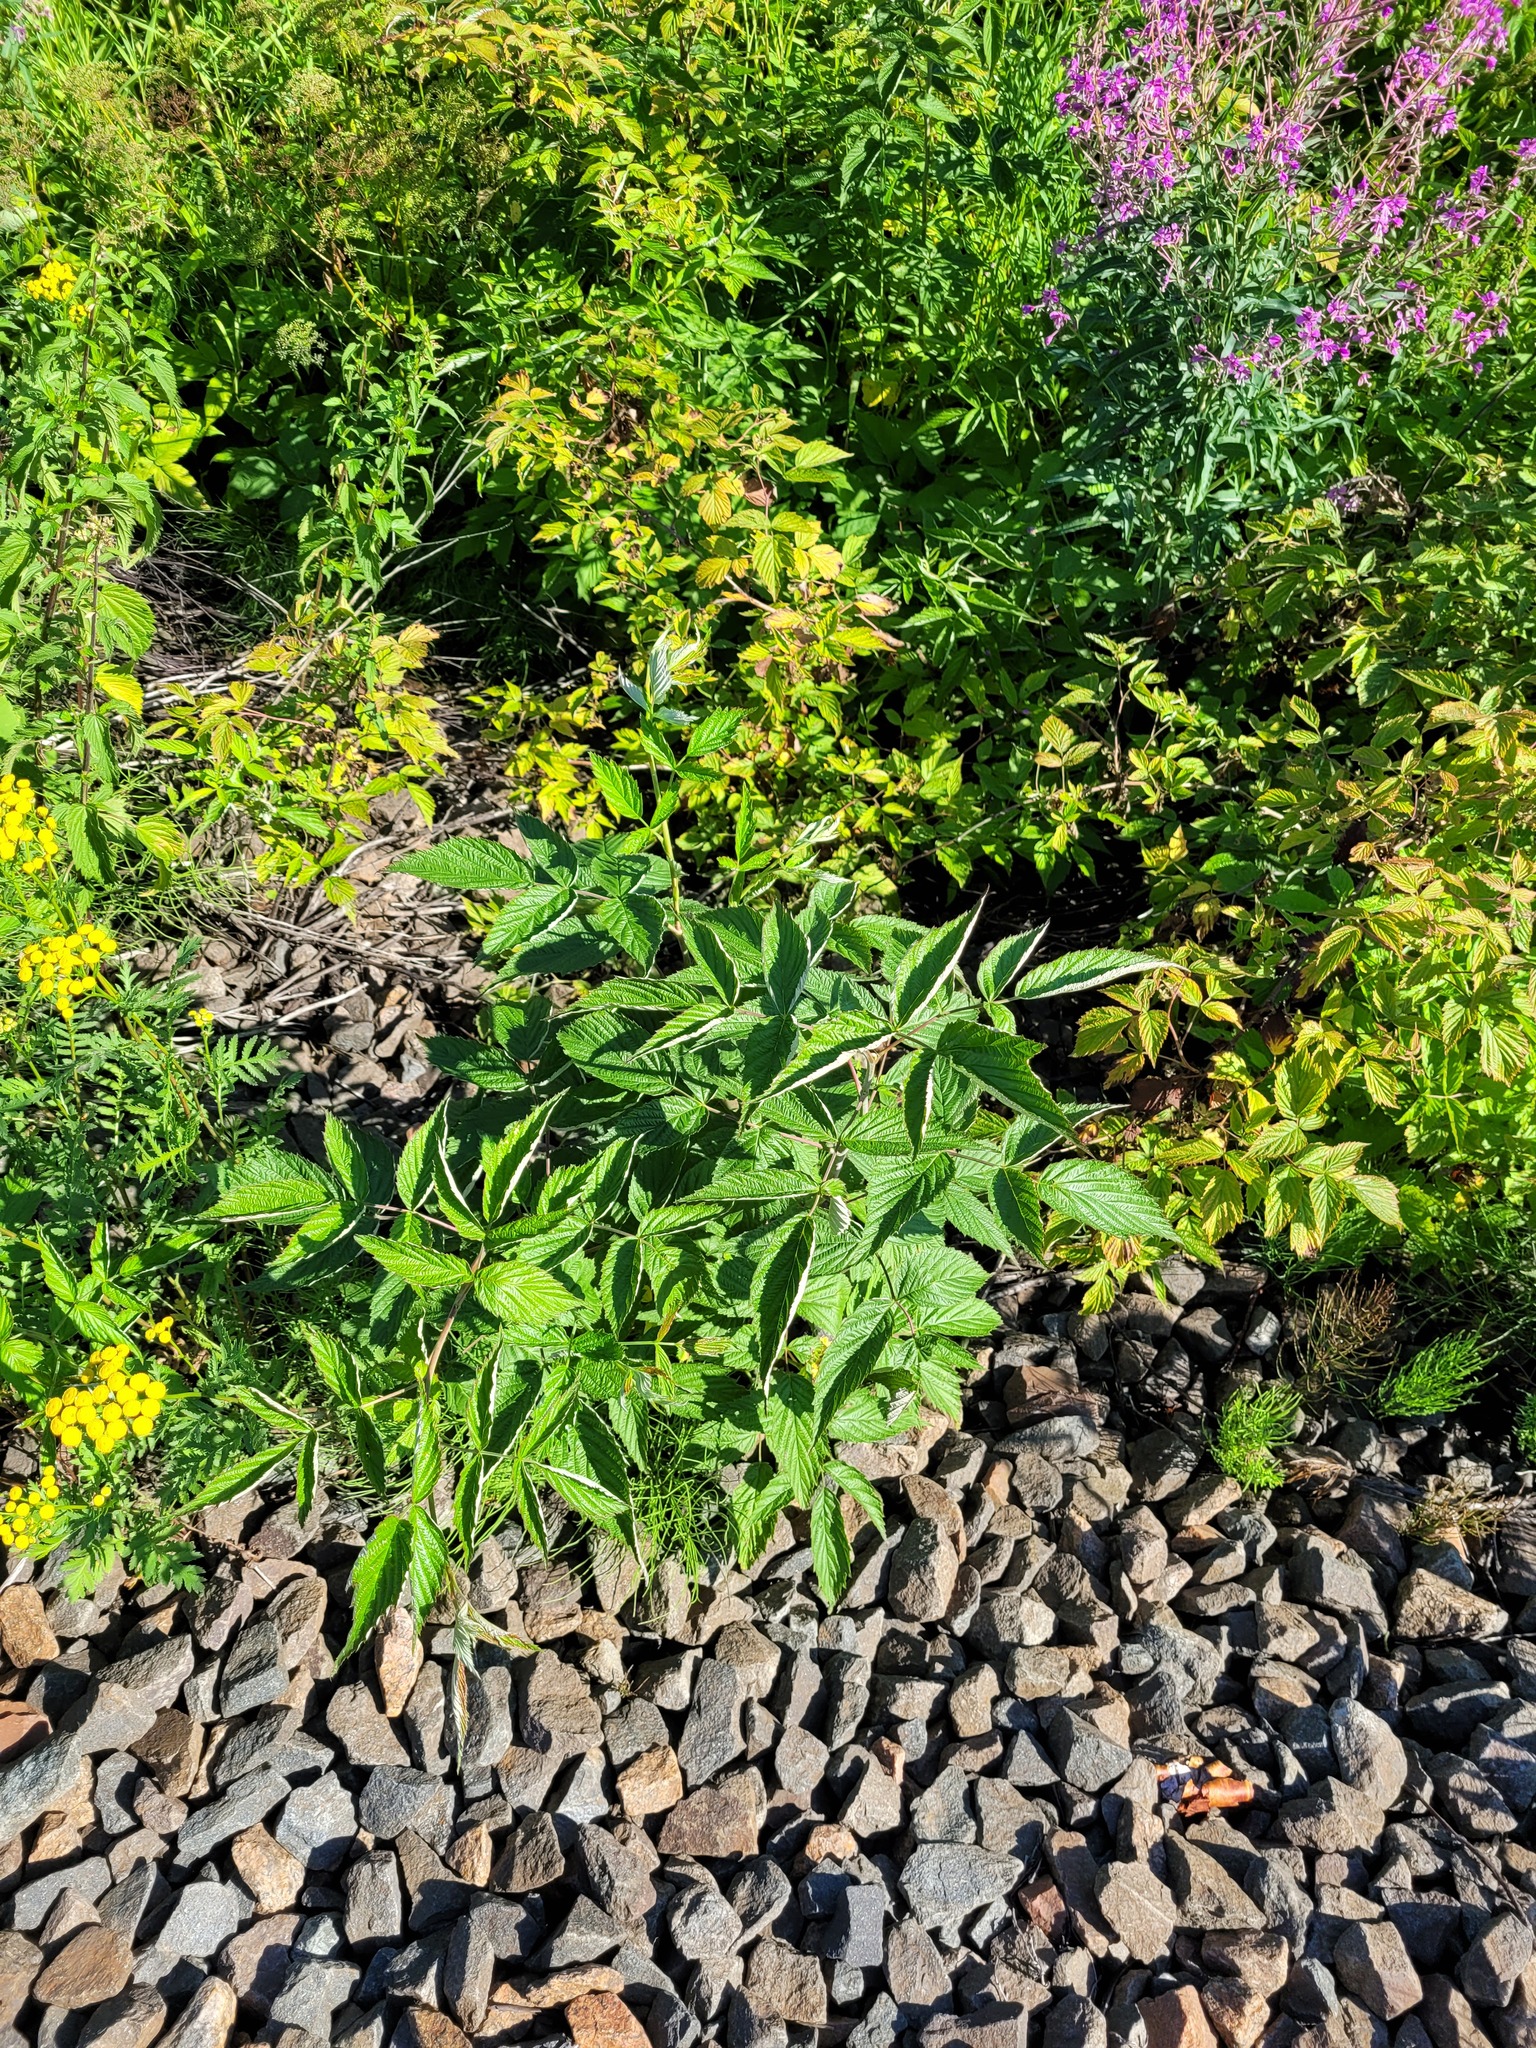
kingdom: Plantae
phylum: Tracheophyta
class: Magnoliopsida
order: Rosales
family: Rosaceae
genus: Rubus
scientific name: Rubus idaeus
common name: Raspberry
